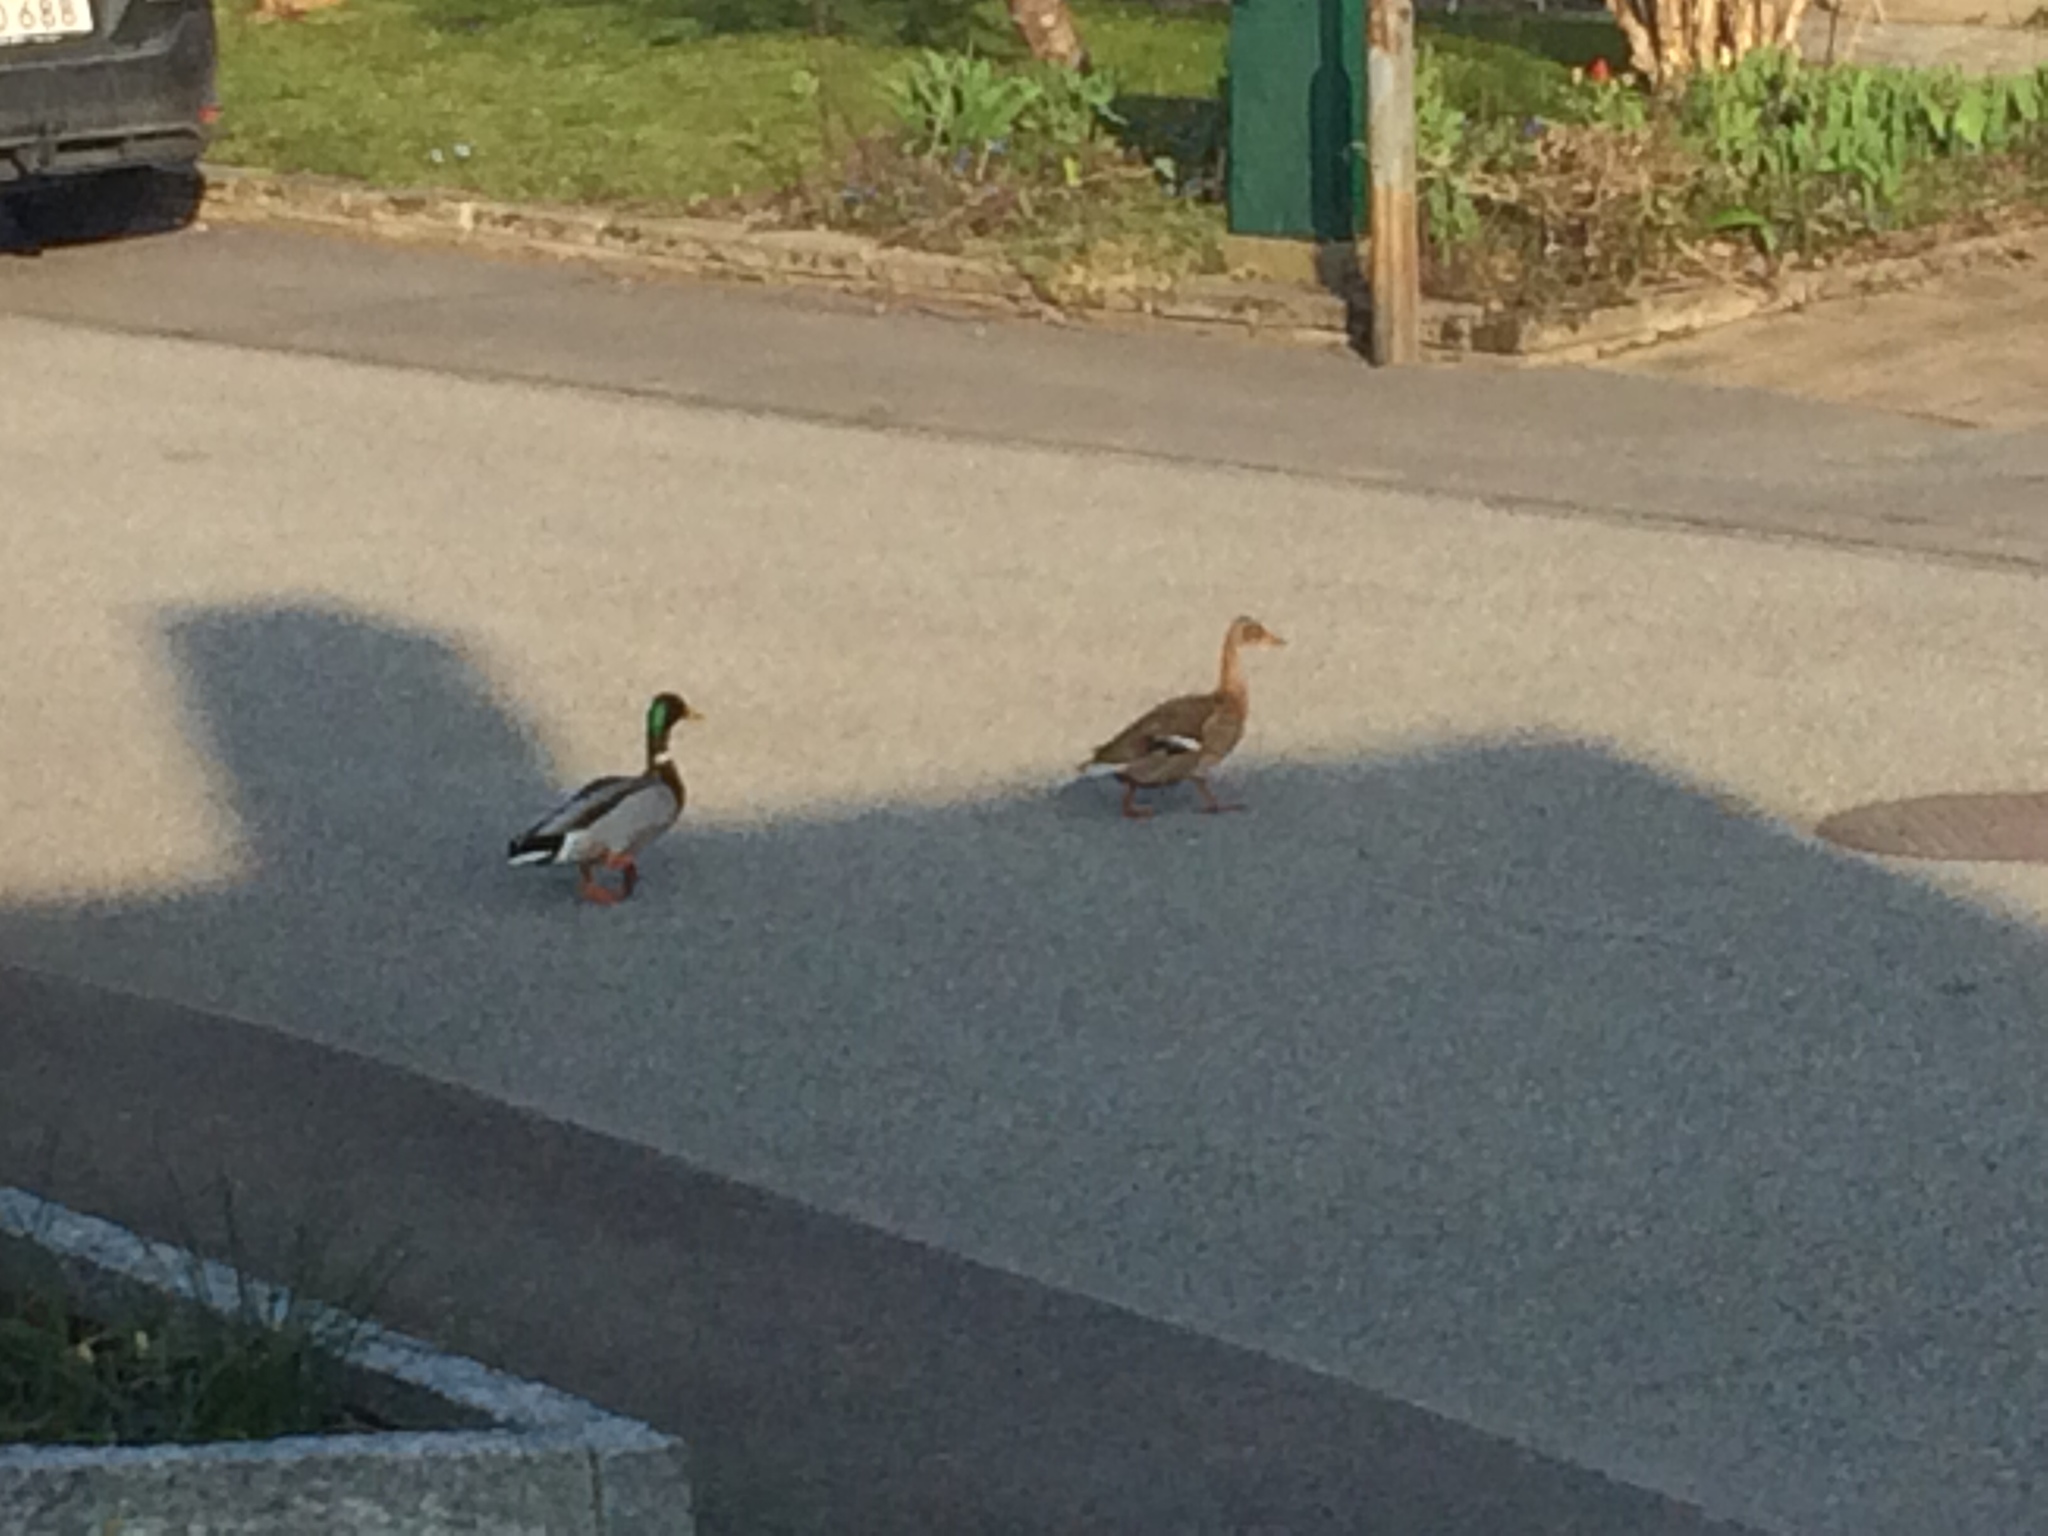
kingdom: Animalia
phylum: Chordata
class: Aves
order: Anseriformes
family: Anatidae
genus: Anas
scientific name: Anas platyrhynchos
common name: Mallard
